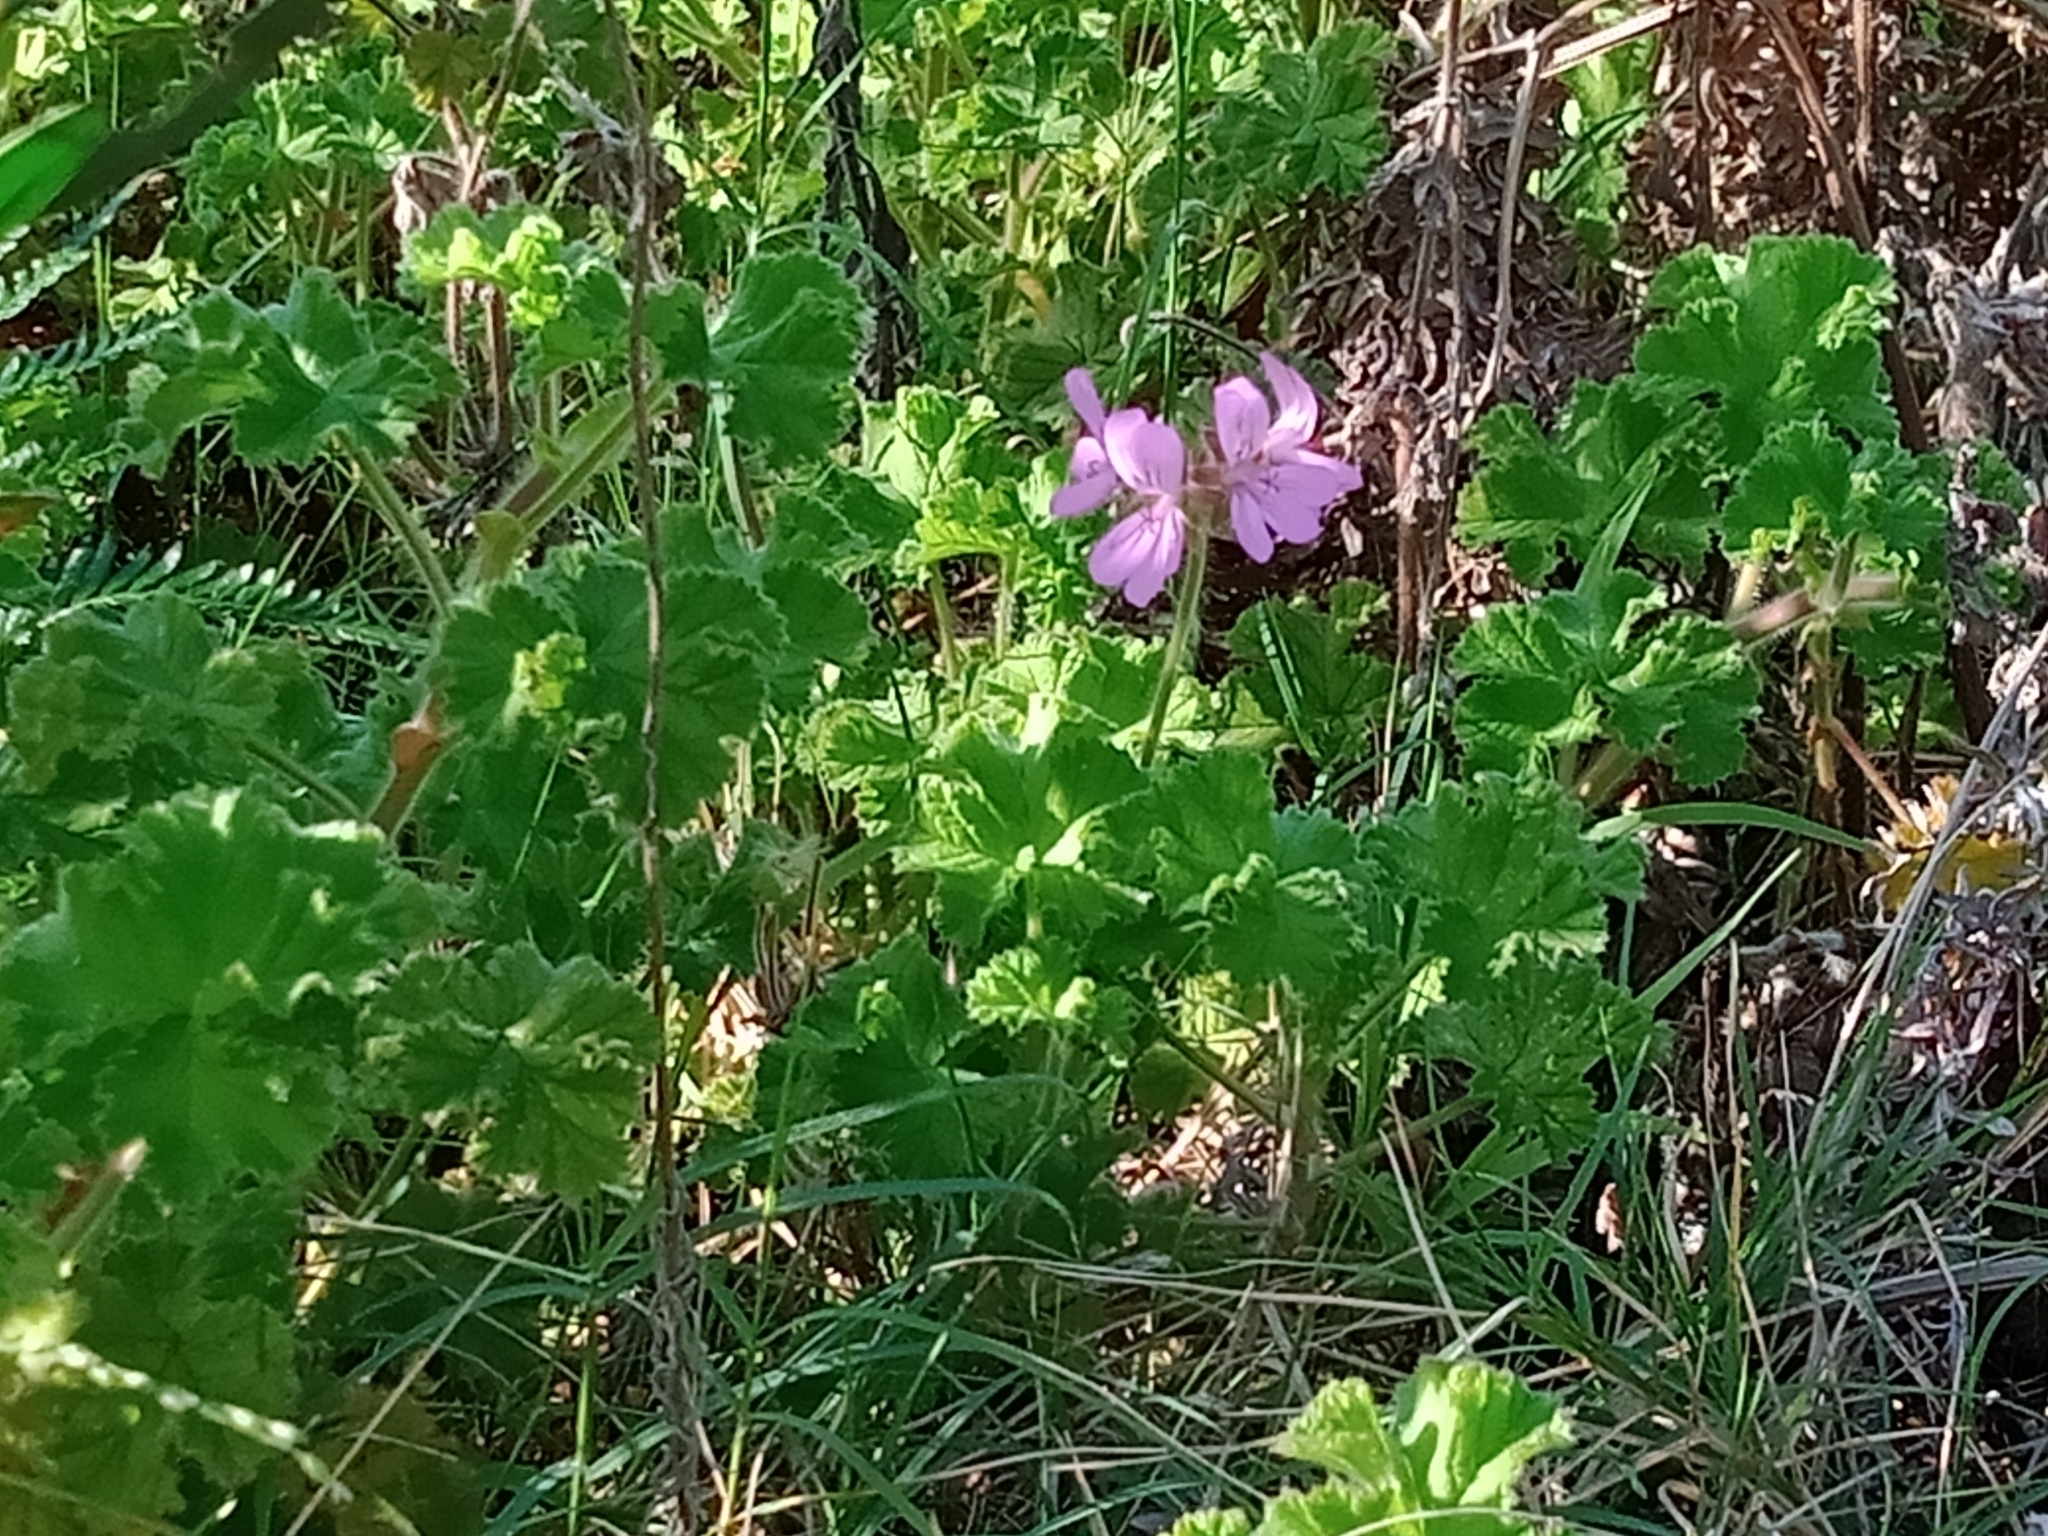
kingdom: Plantae
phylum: Tracheophyta
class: Magnoliopsida
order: Geraniales
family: Geraniaceae
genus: Pelargonium
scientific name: Pelargonium capitatum
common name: Rose scented geranium
